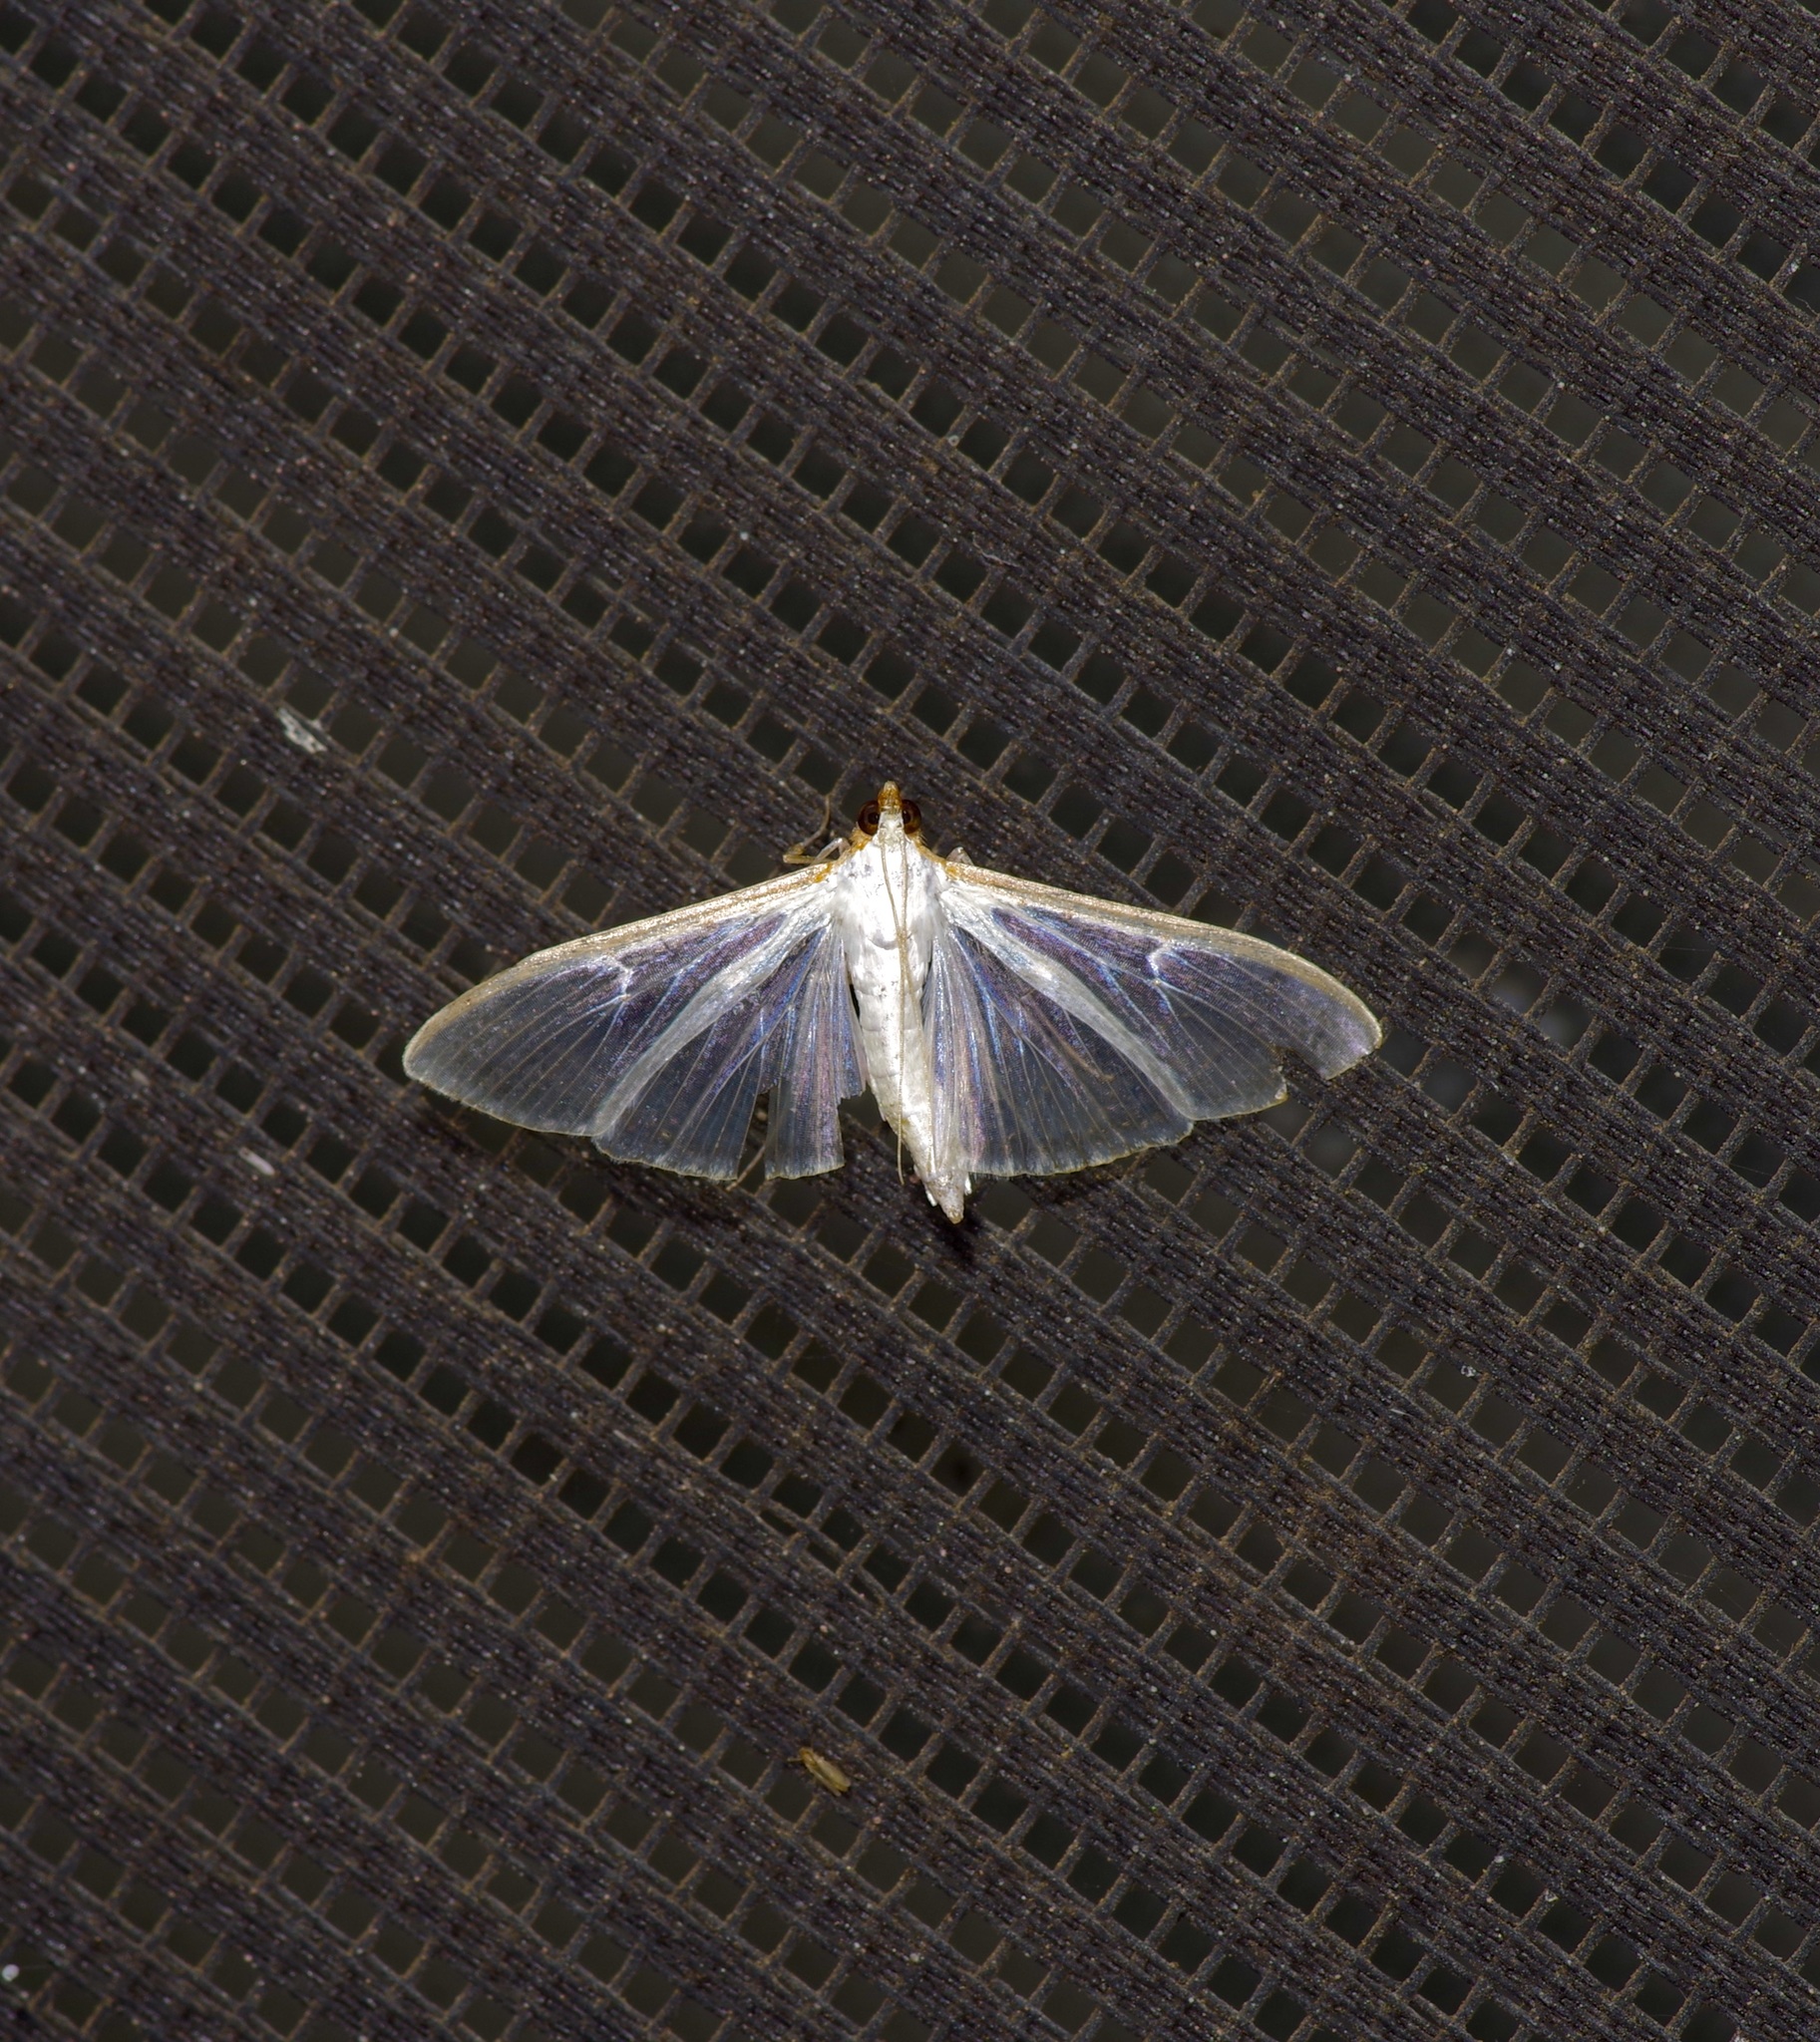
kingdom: Animalia
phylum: Arthropoda
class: Insecta
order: Lepidoptera
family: Crambidae
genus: Diaphania
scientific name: Diaphania costata
